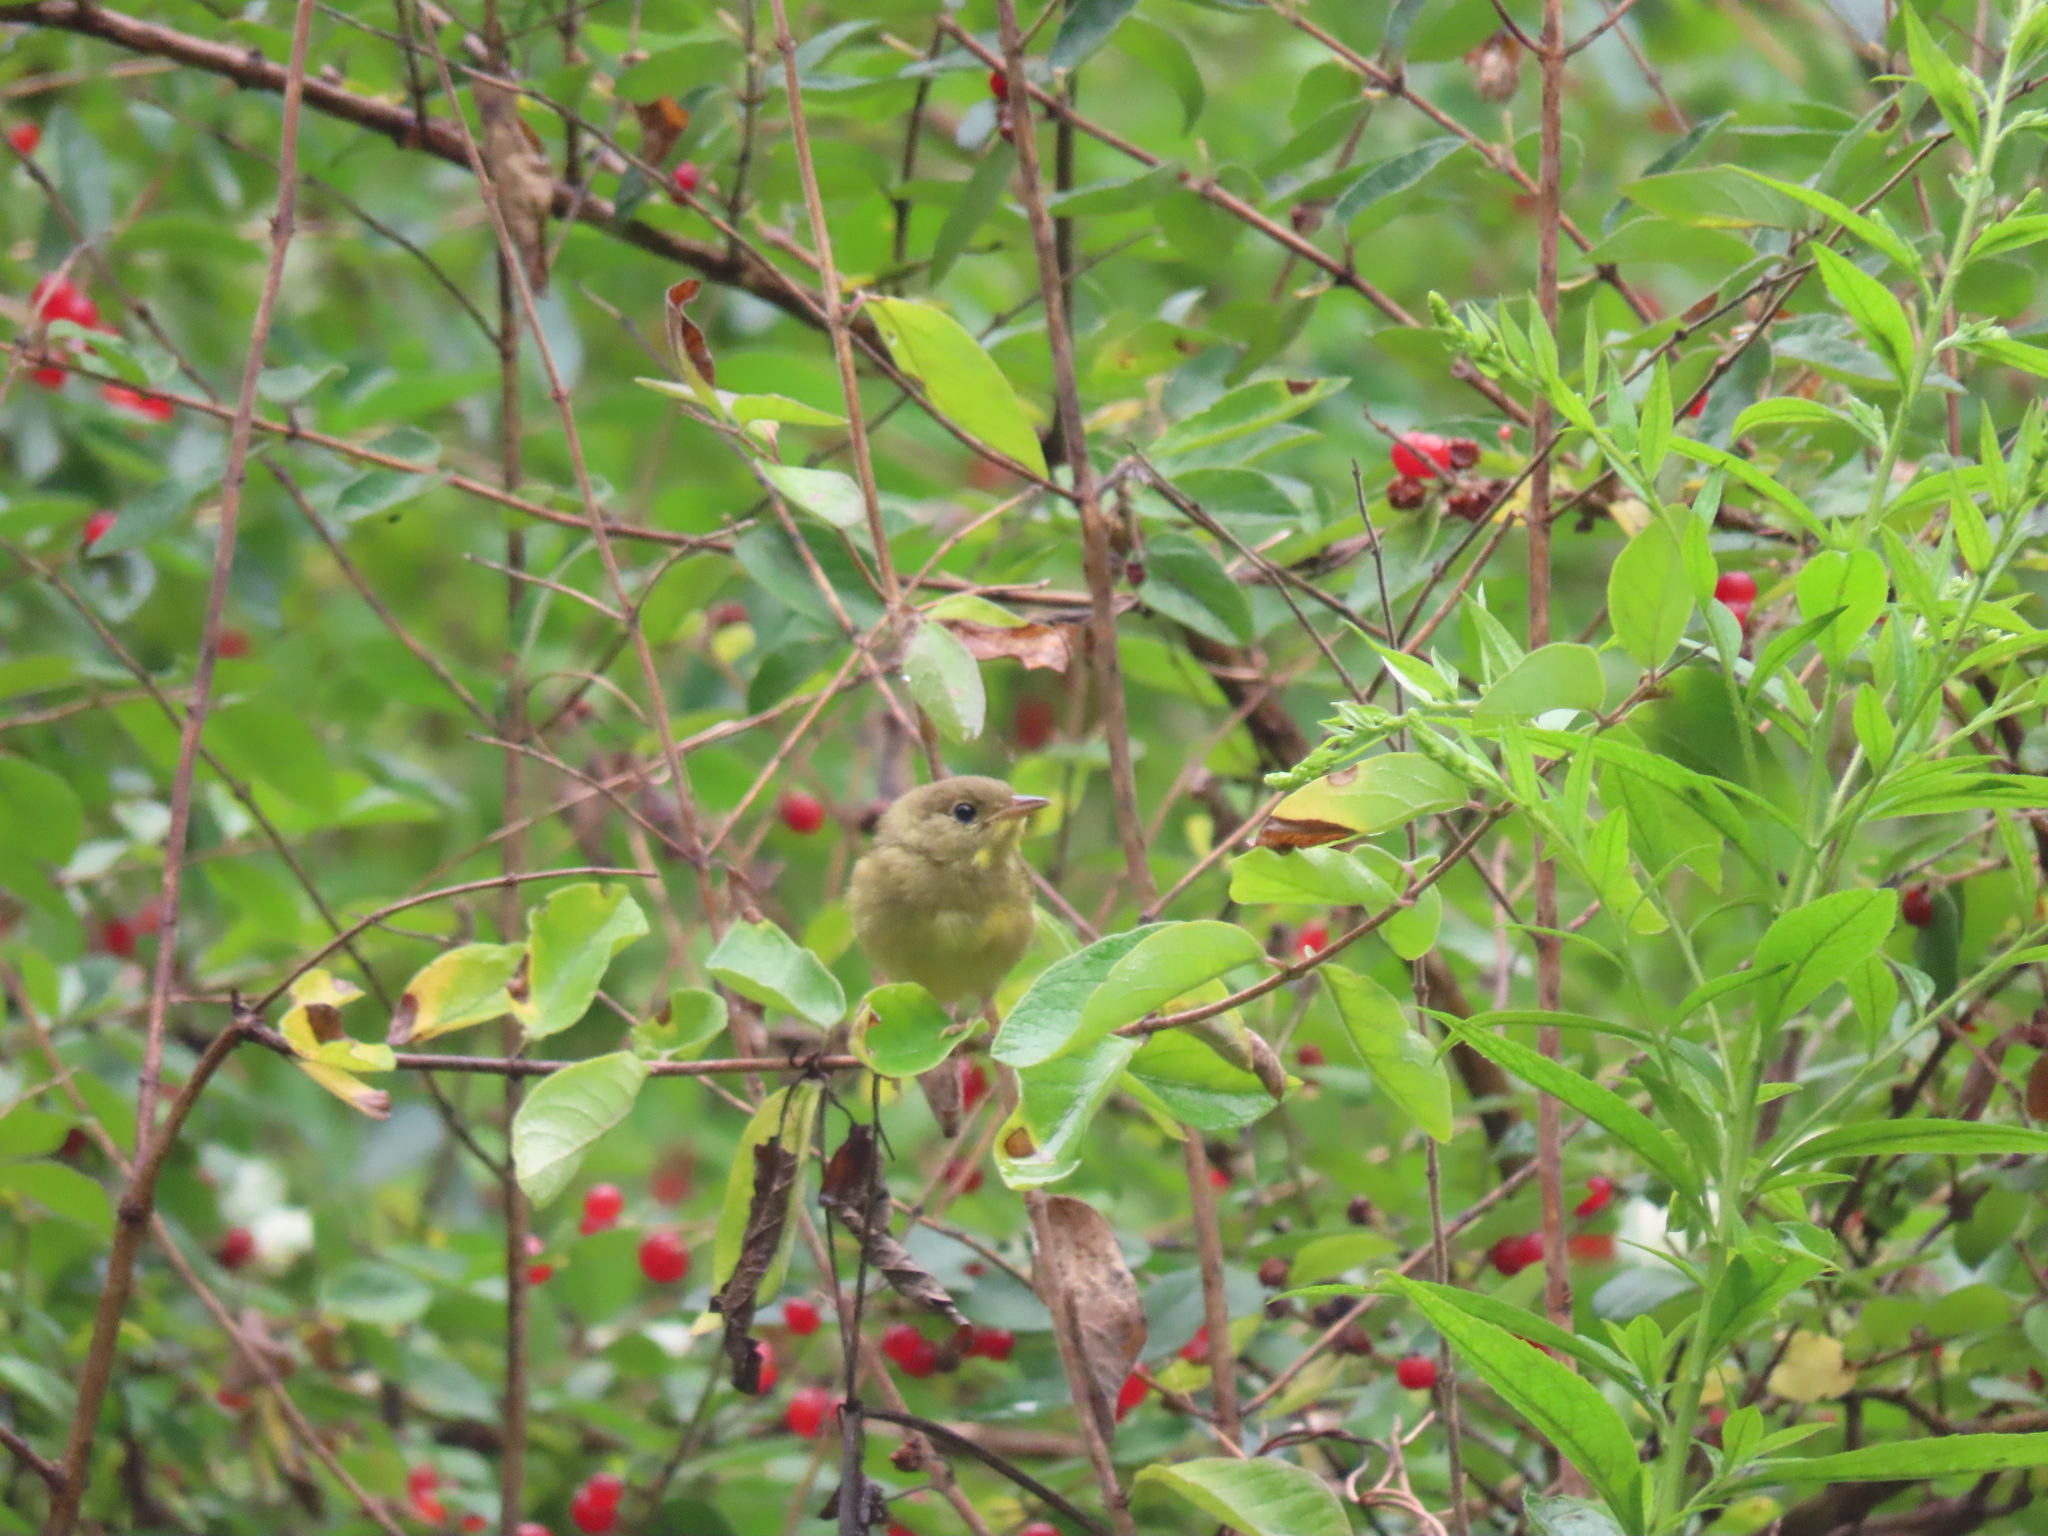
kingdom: Animalia
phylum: Chordata
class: Aves
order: Passeriformes
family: Parulidae
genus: Geothlypis
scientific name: Geothlypis trichas
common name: Common yellowthroat
